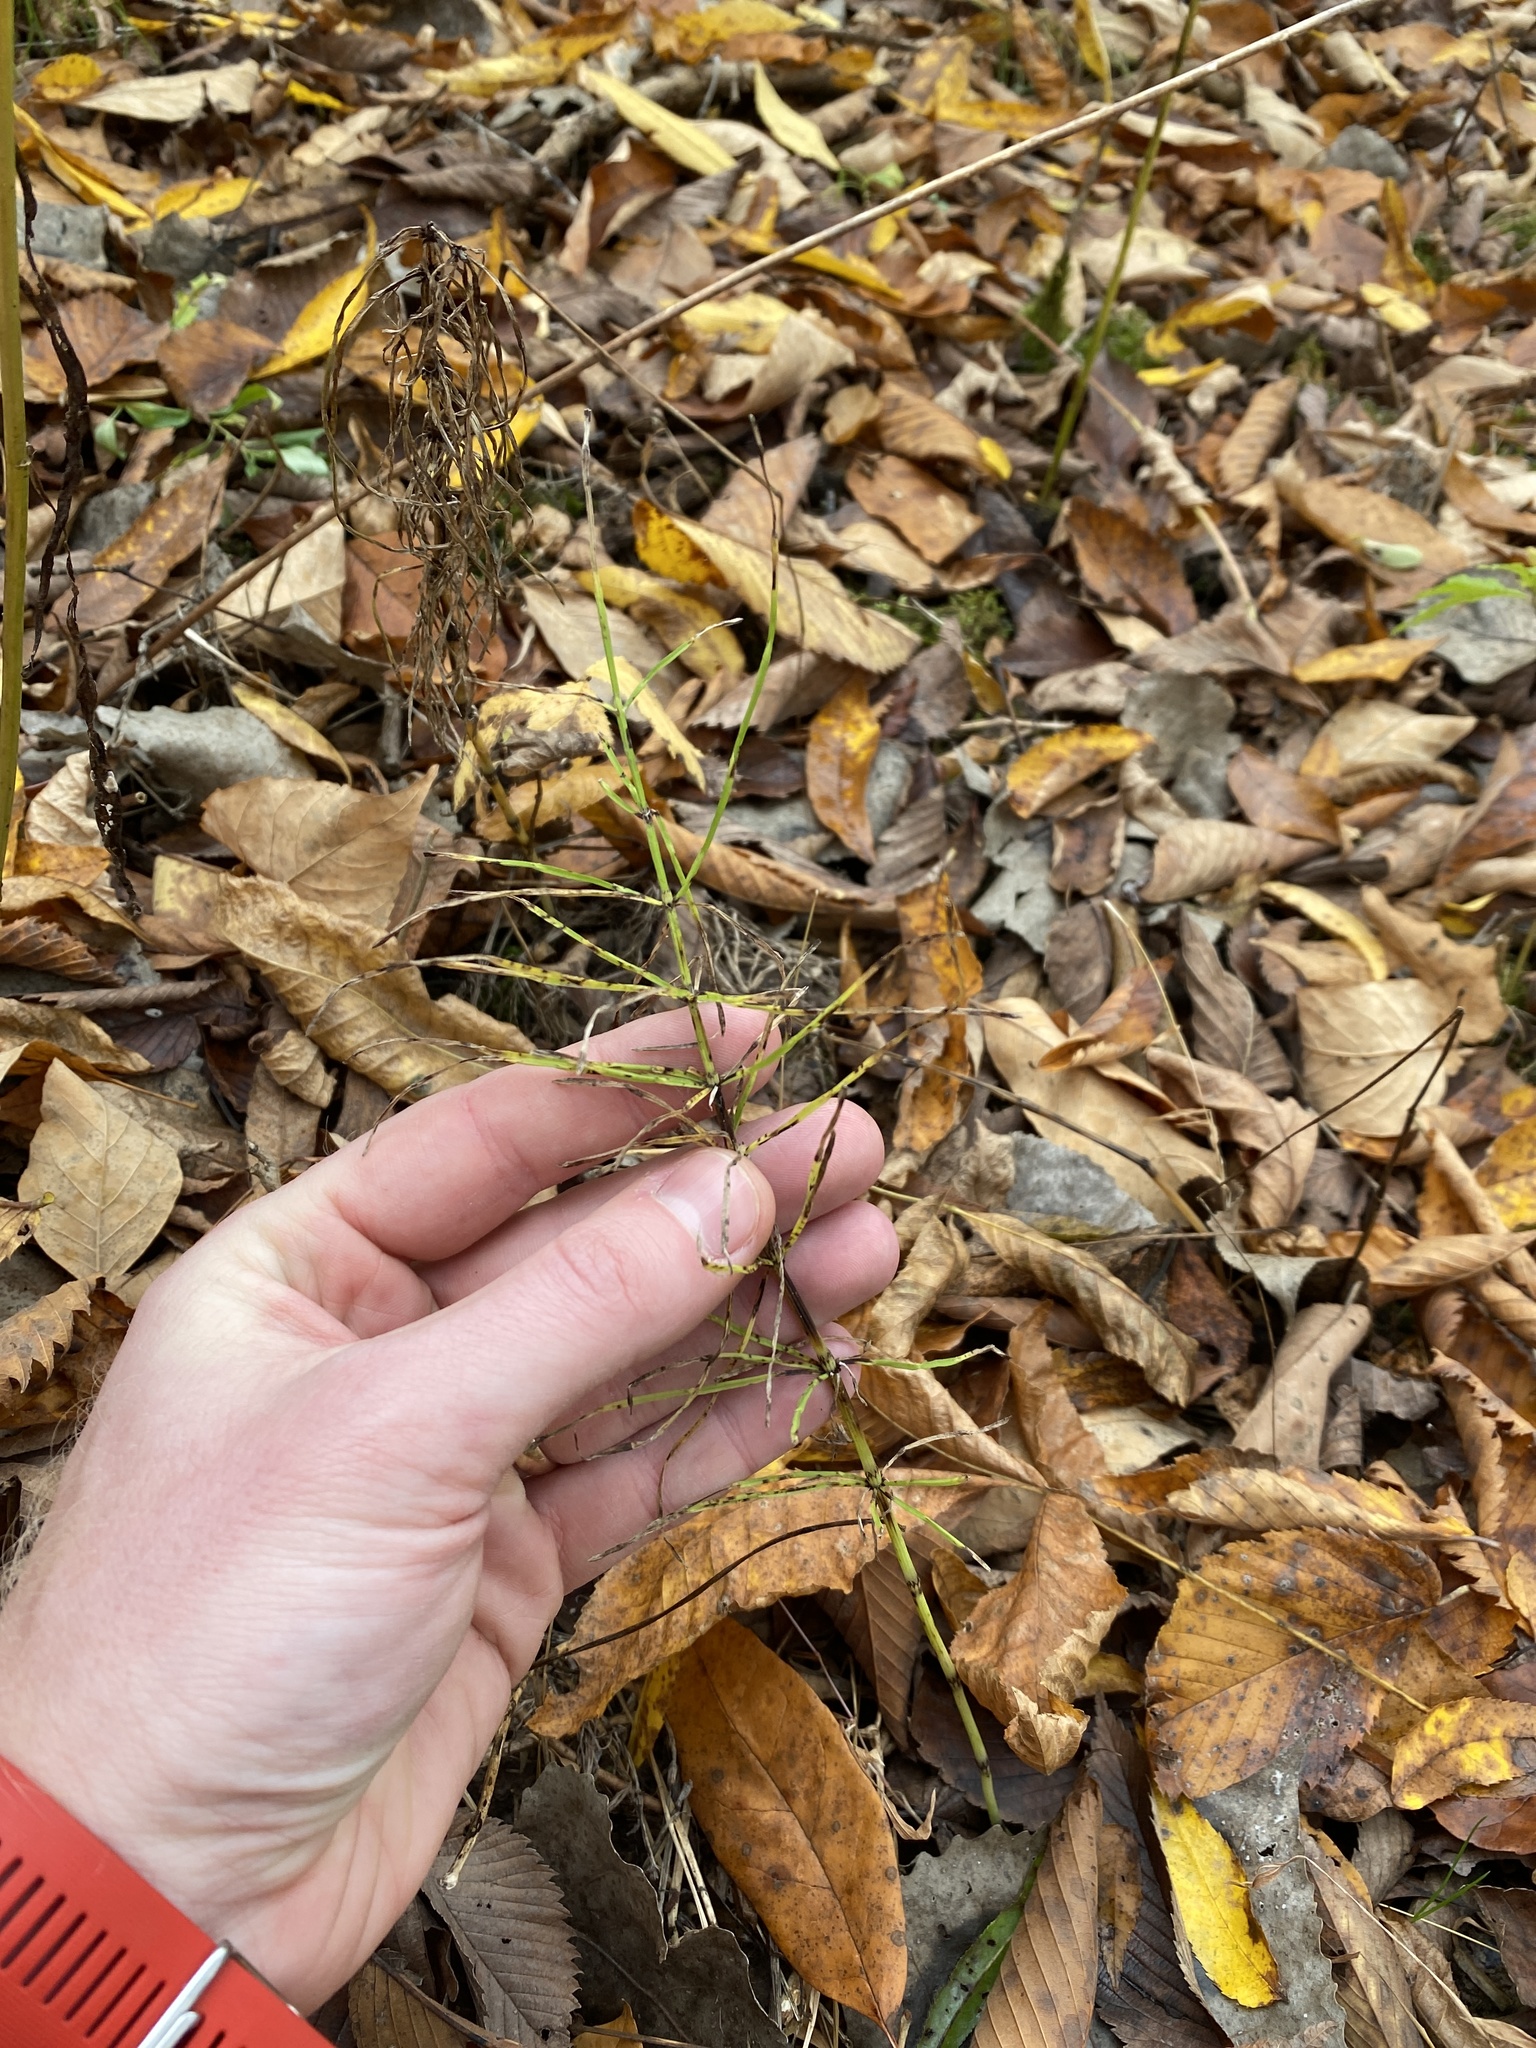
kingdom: Plantae
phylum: Tracheophyta
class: Polypodiopsida
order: Equisetales
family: Equisetaceae
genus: Equisetum
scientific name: Equisetum arvense
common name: Field horsetail
